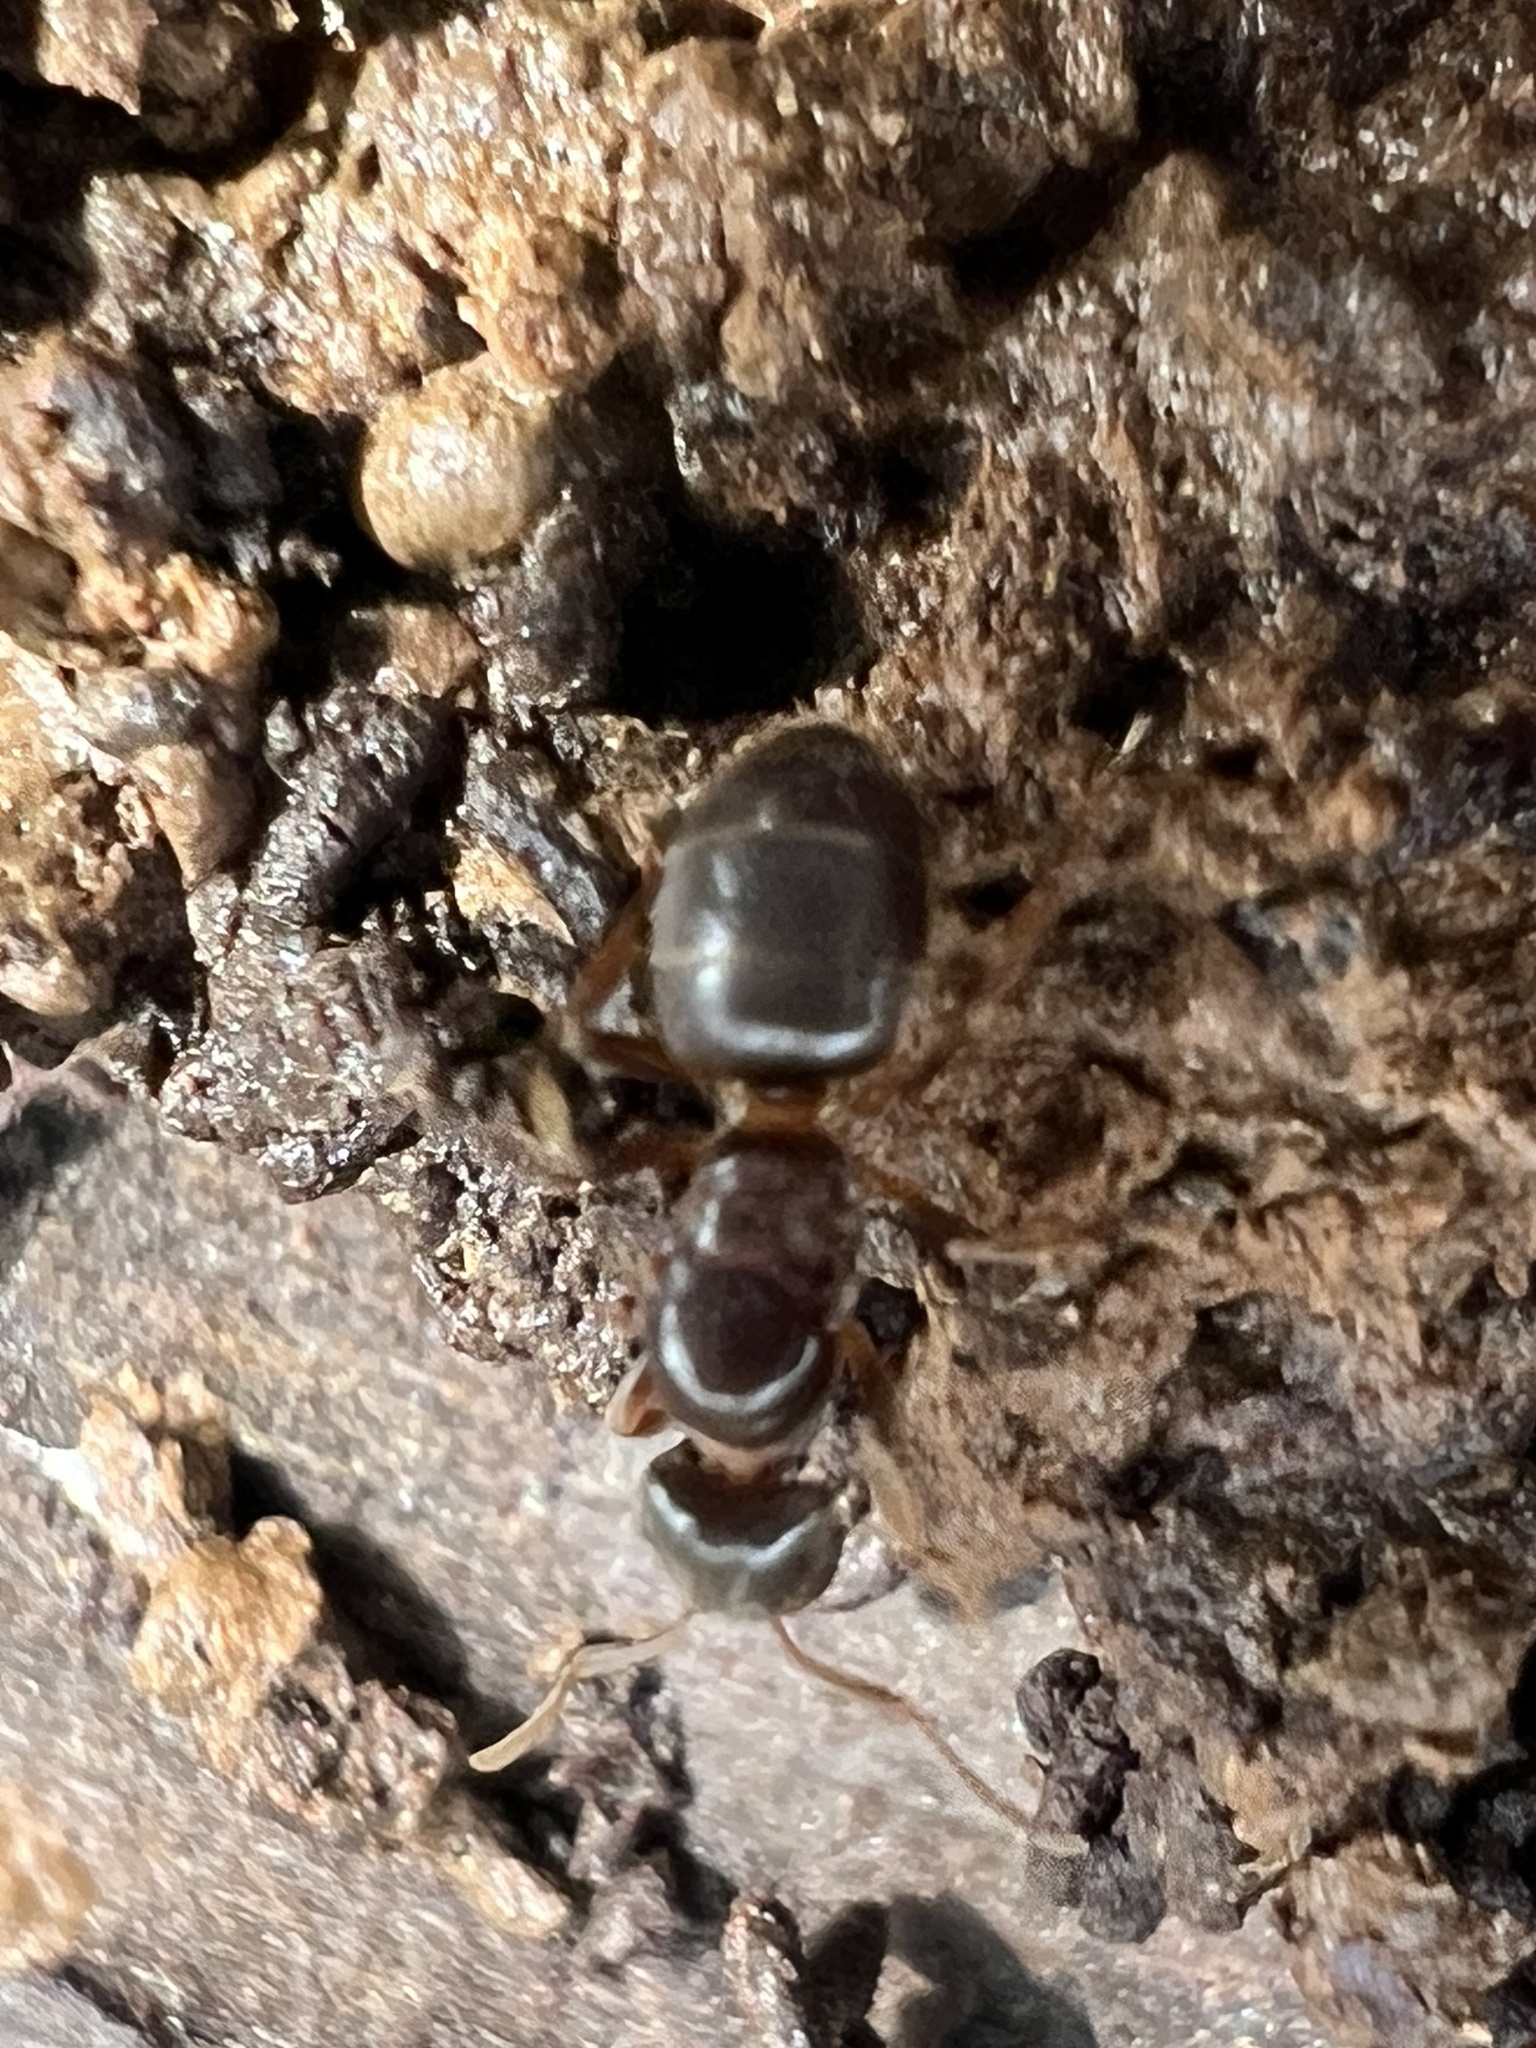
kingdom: Animalia
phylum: Arthropoda
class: Insecta
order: Hymenoptera
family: Formicidae
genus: Lasius
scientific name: Lasius aphidicola
